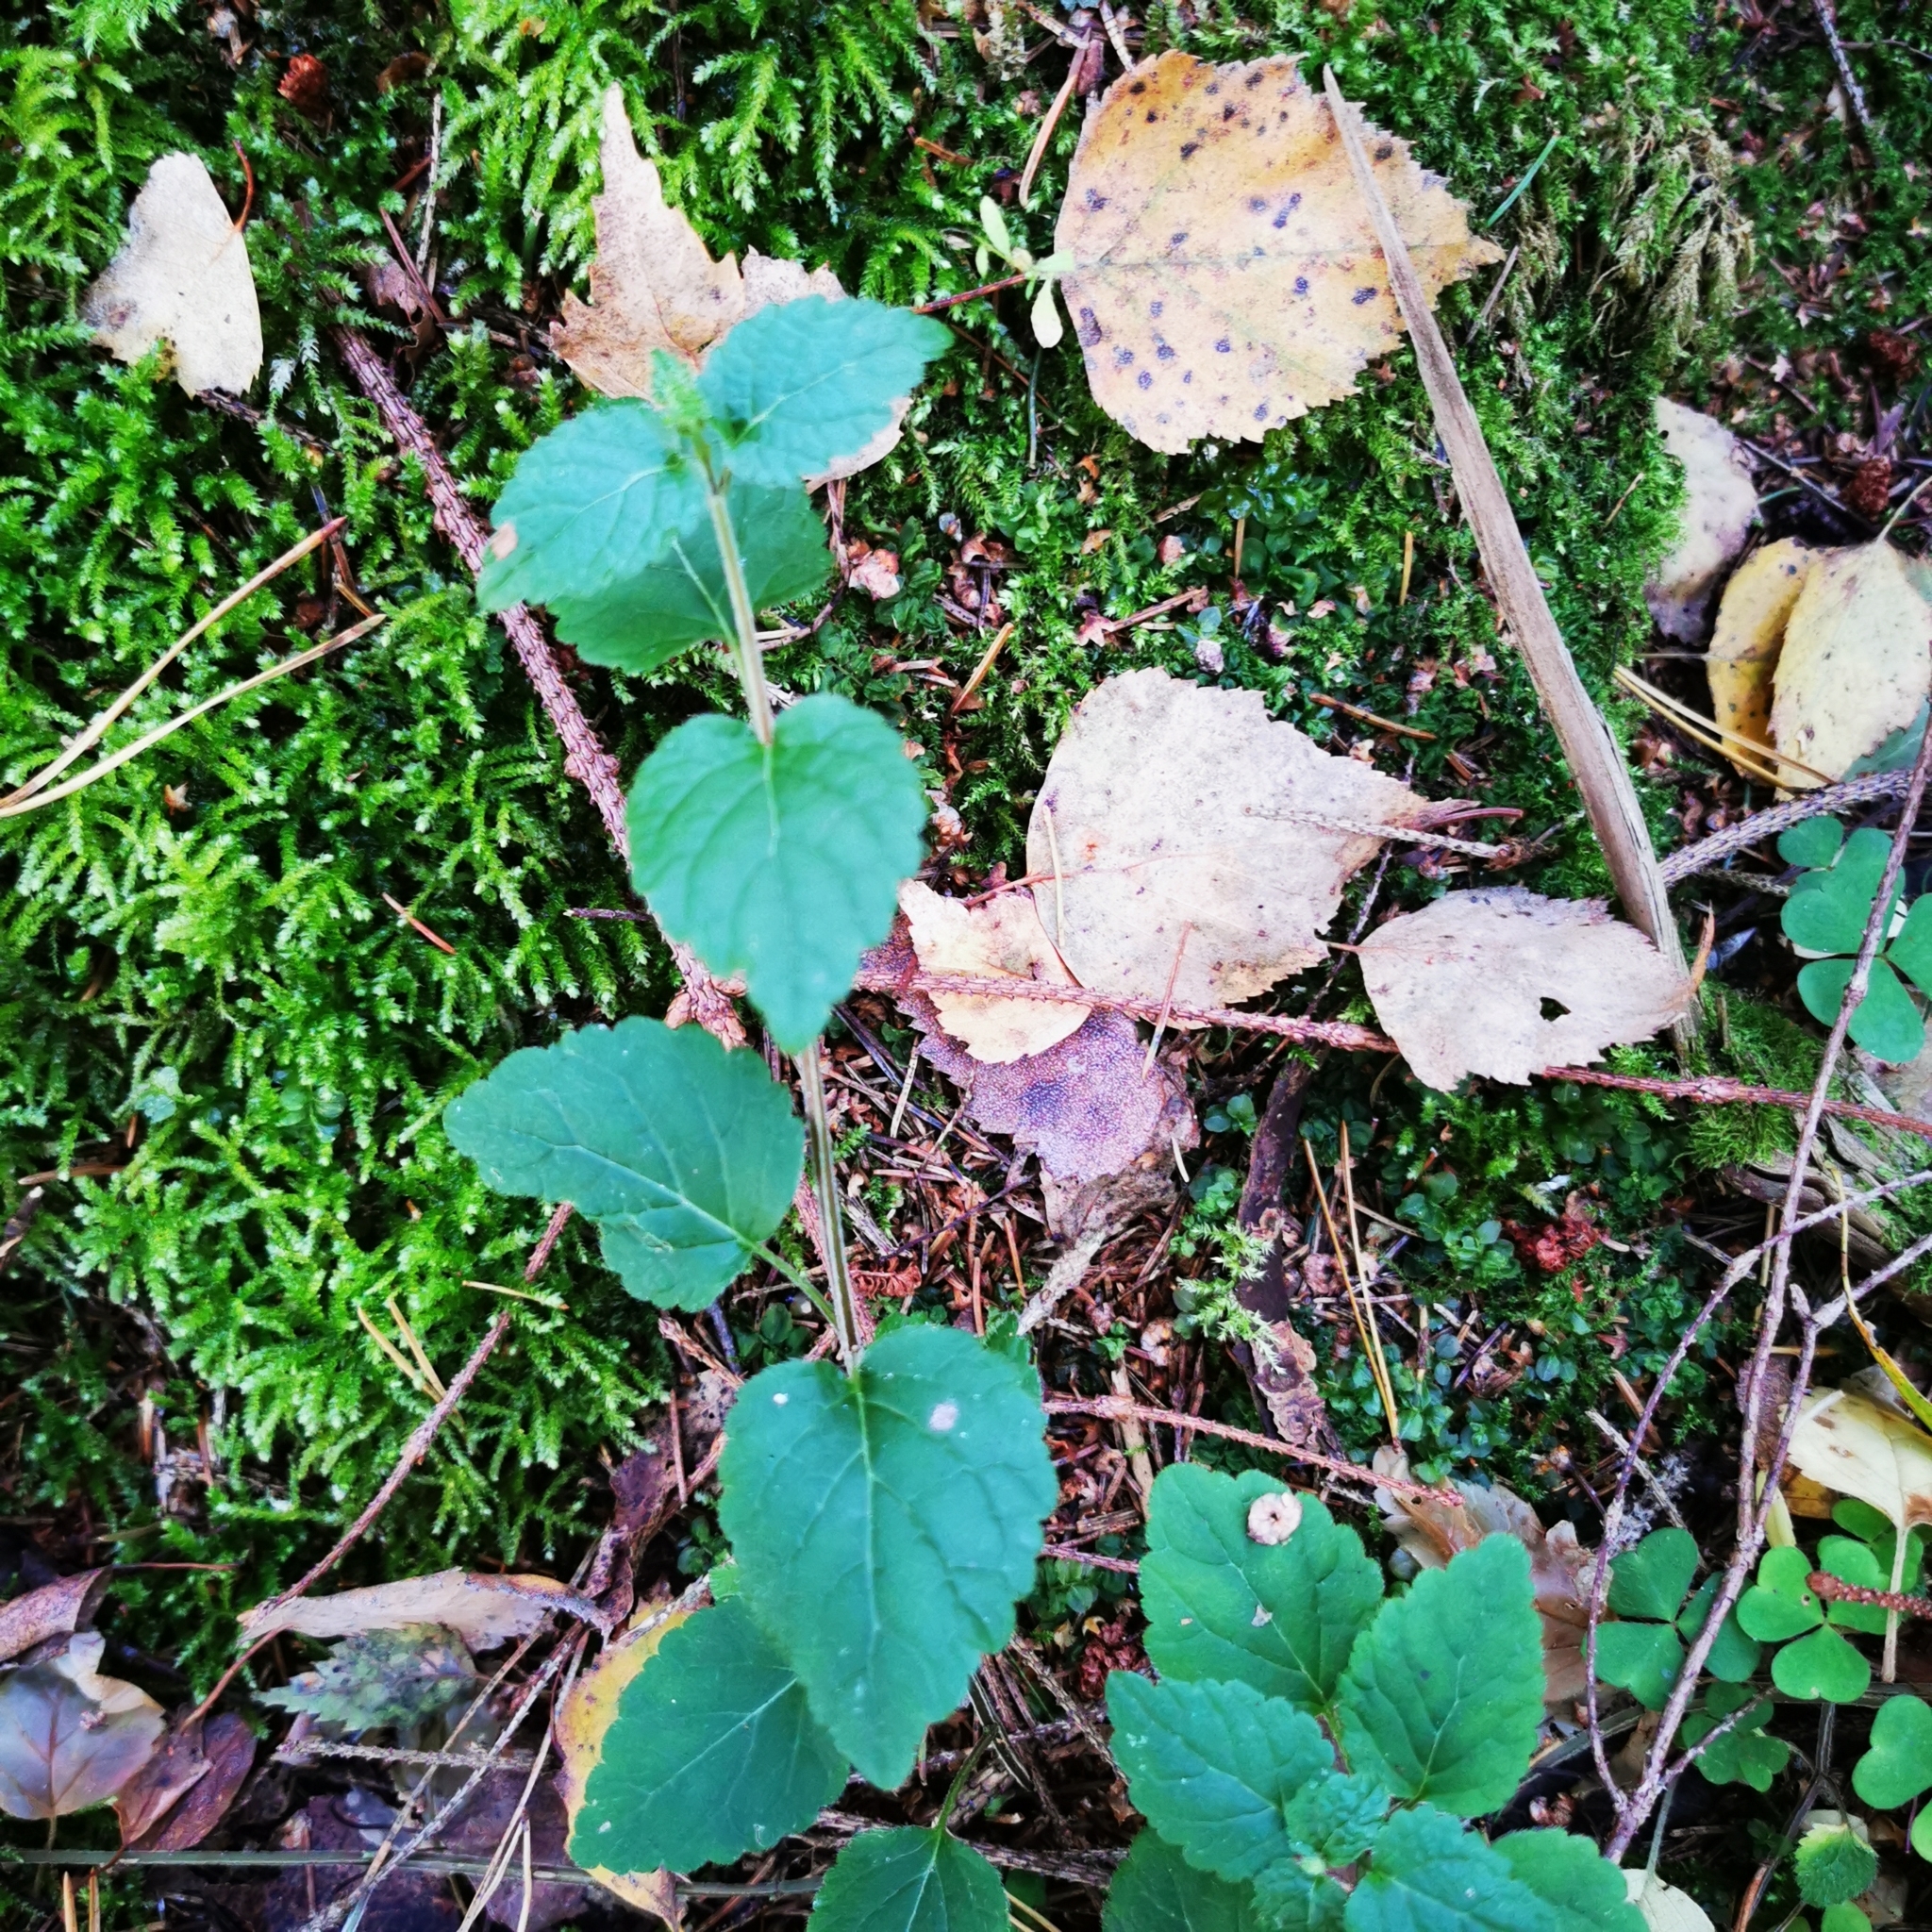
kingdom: Plantae
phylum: Tracheophyta
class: Magnoliopsida
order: Lamiales
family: Lamiaceae
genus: Lamium
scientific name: Lamium galeobdolon
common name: Yellow archangel
